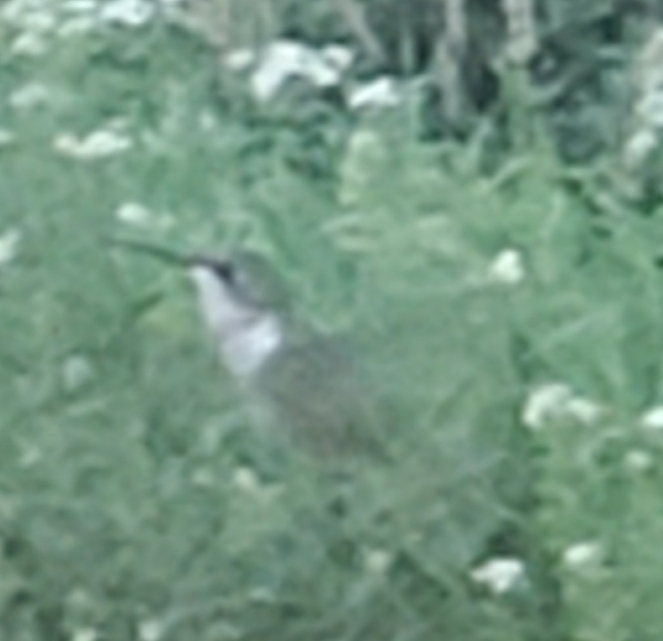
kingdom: Animalia
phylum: Chordata
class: Aves
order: Apodiformes
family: Trochilidae
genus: Archilochus
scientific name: Archilochus colubris
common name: Ruby-throated hummingbird
